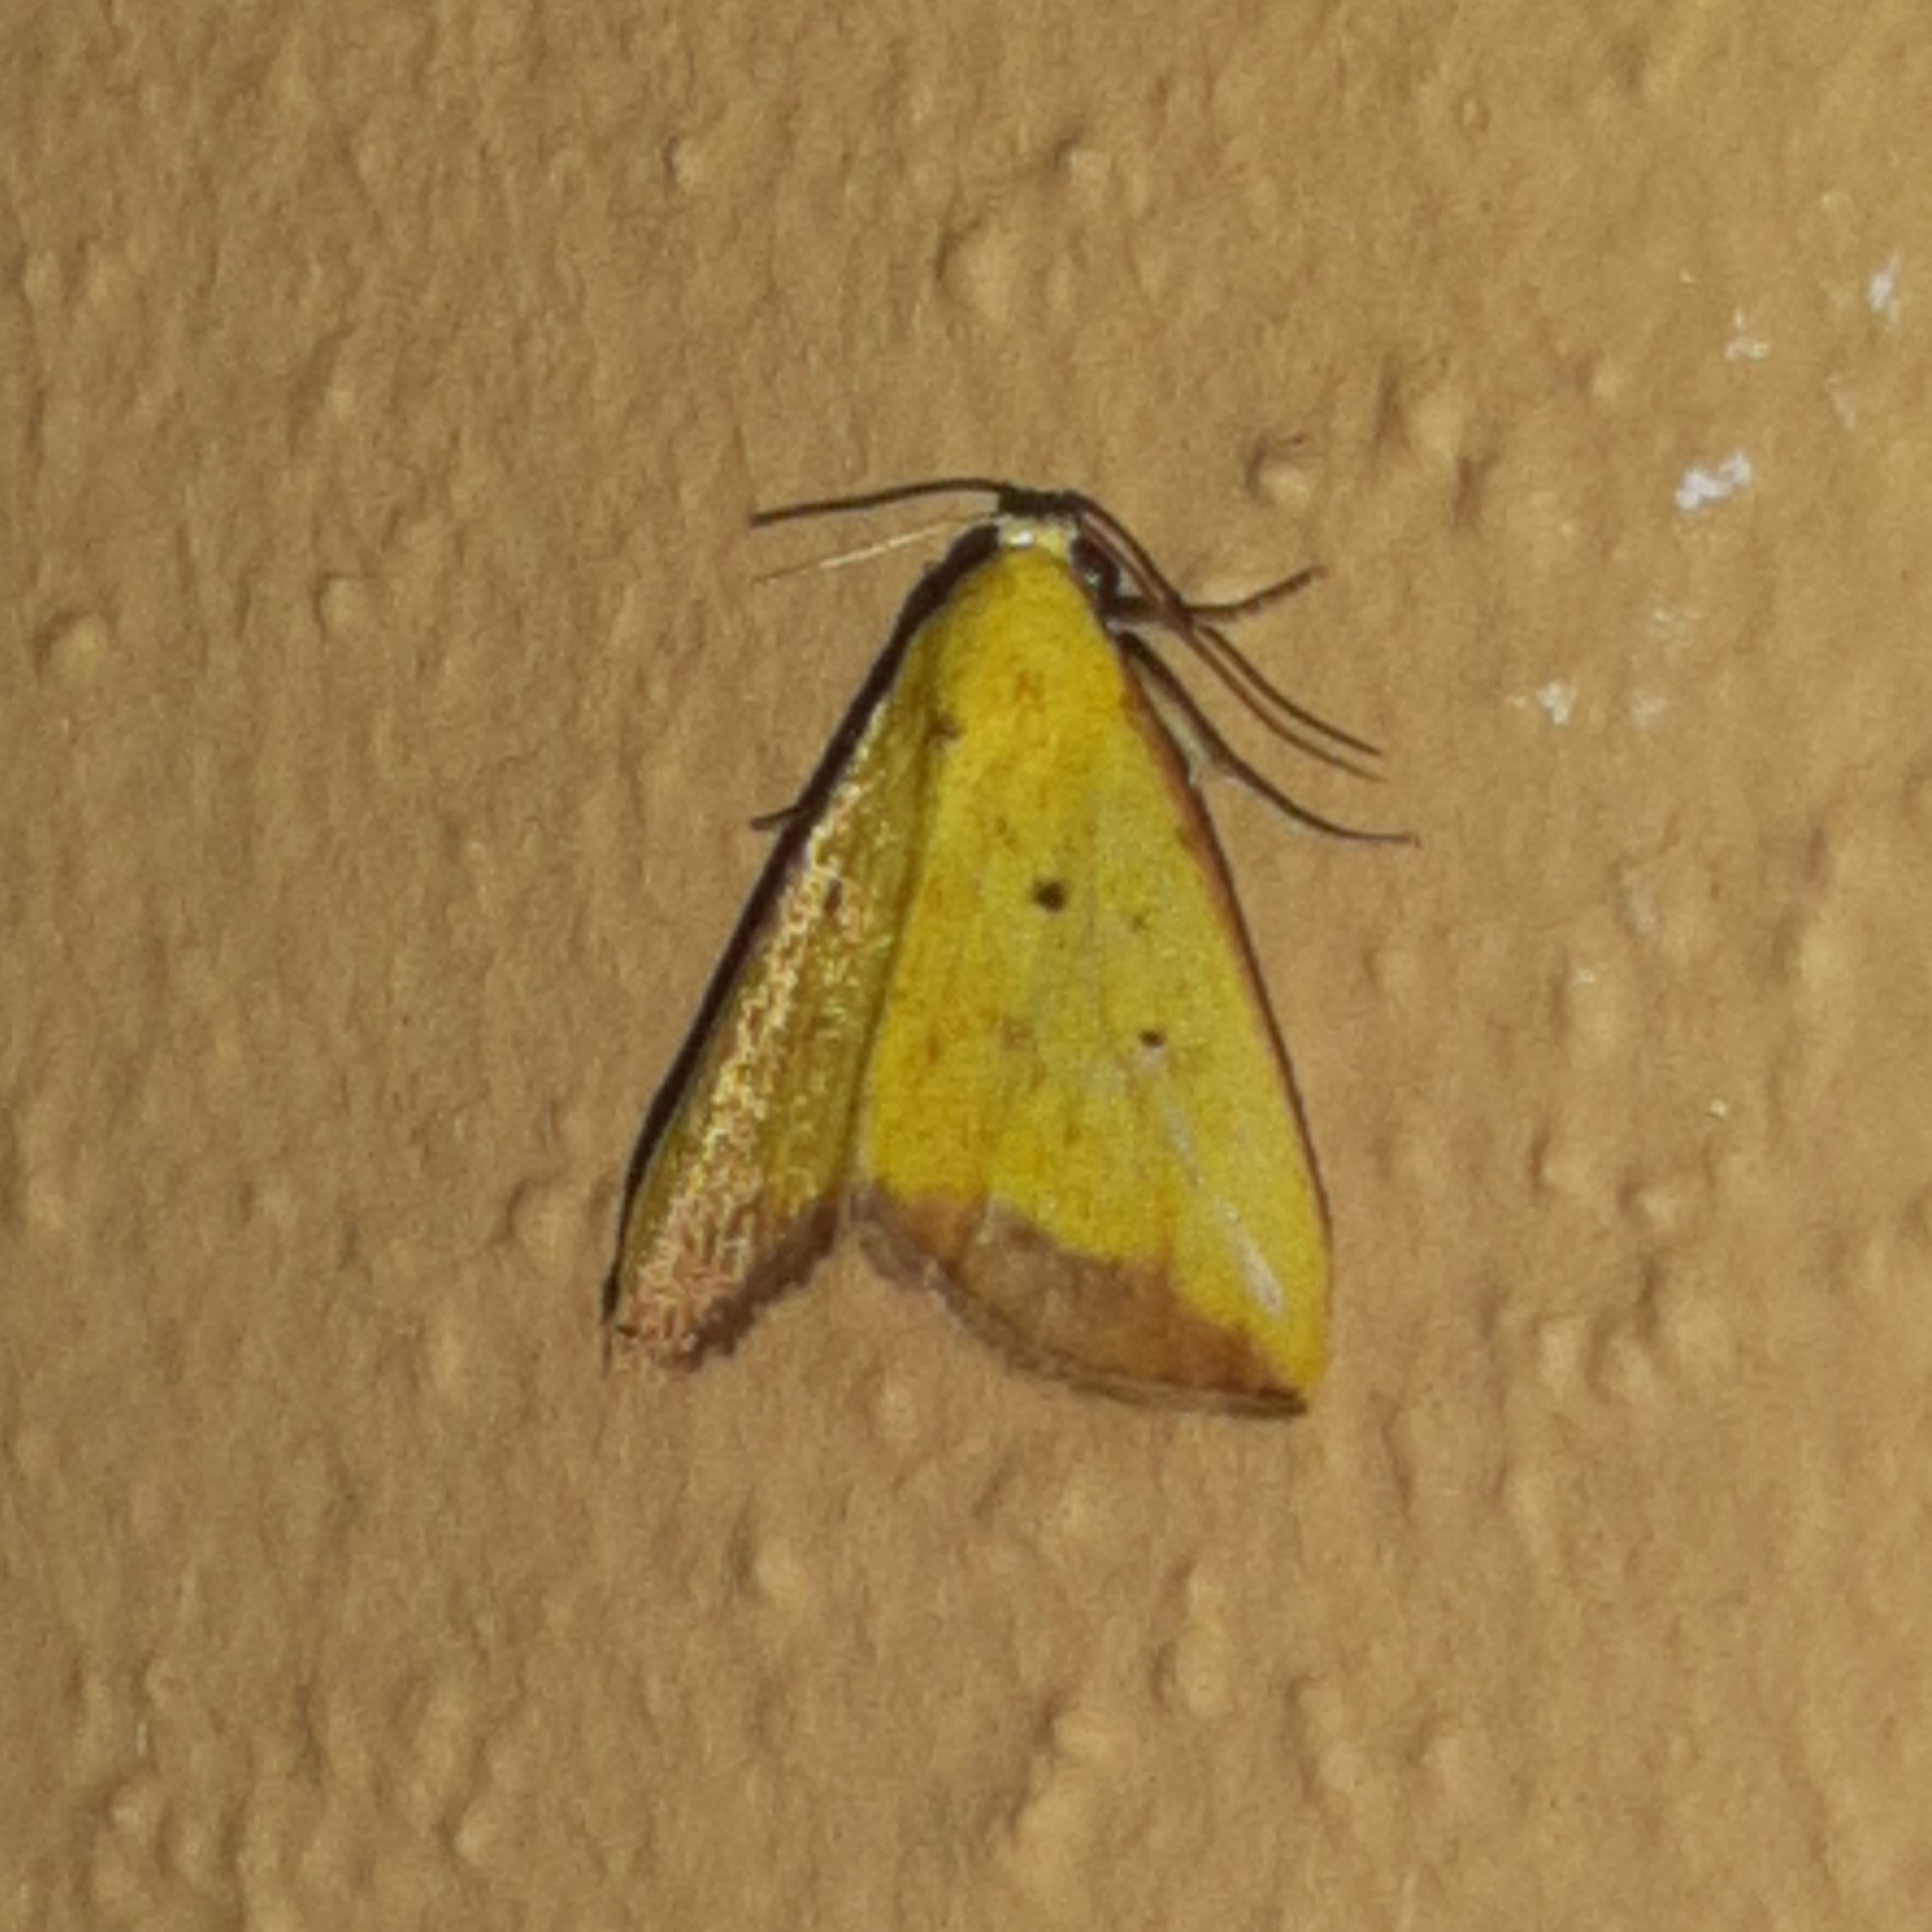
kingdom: Animalia
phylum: Arthropoda
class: Insecta
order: Lepidoptera
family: Noctuidae
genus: Marimatha
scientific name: Marimatha botyoides
